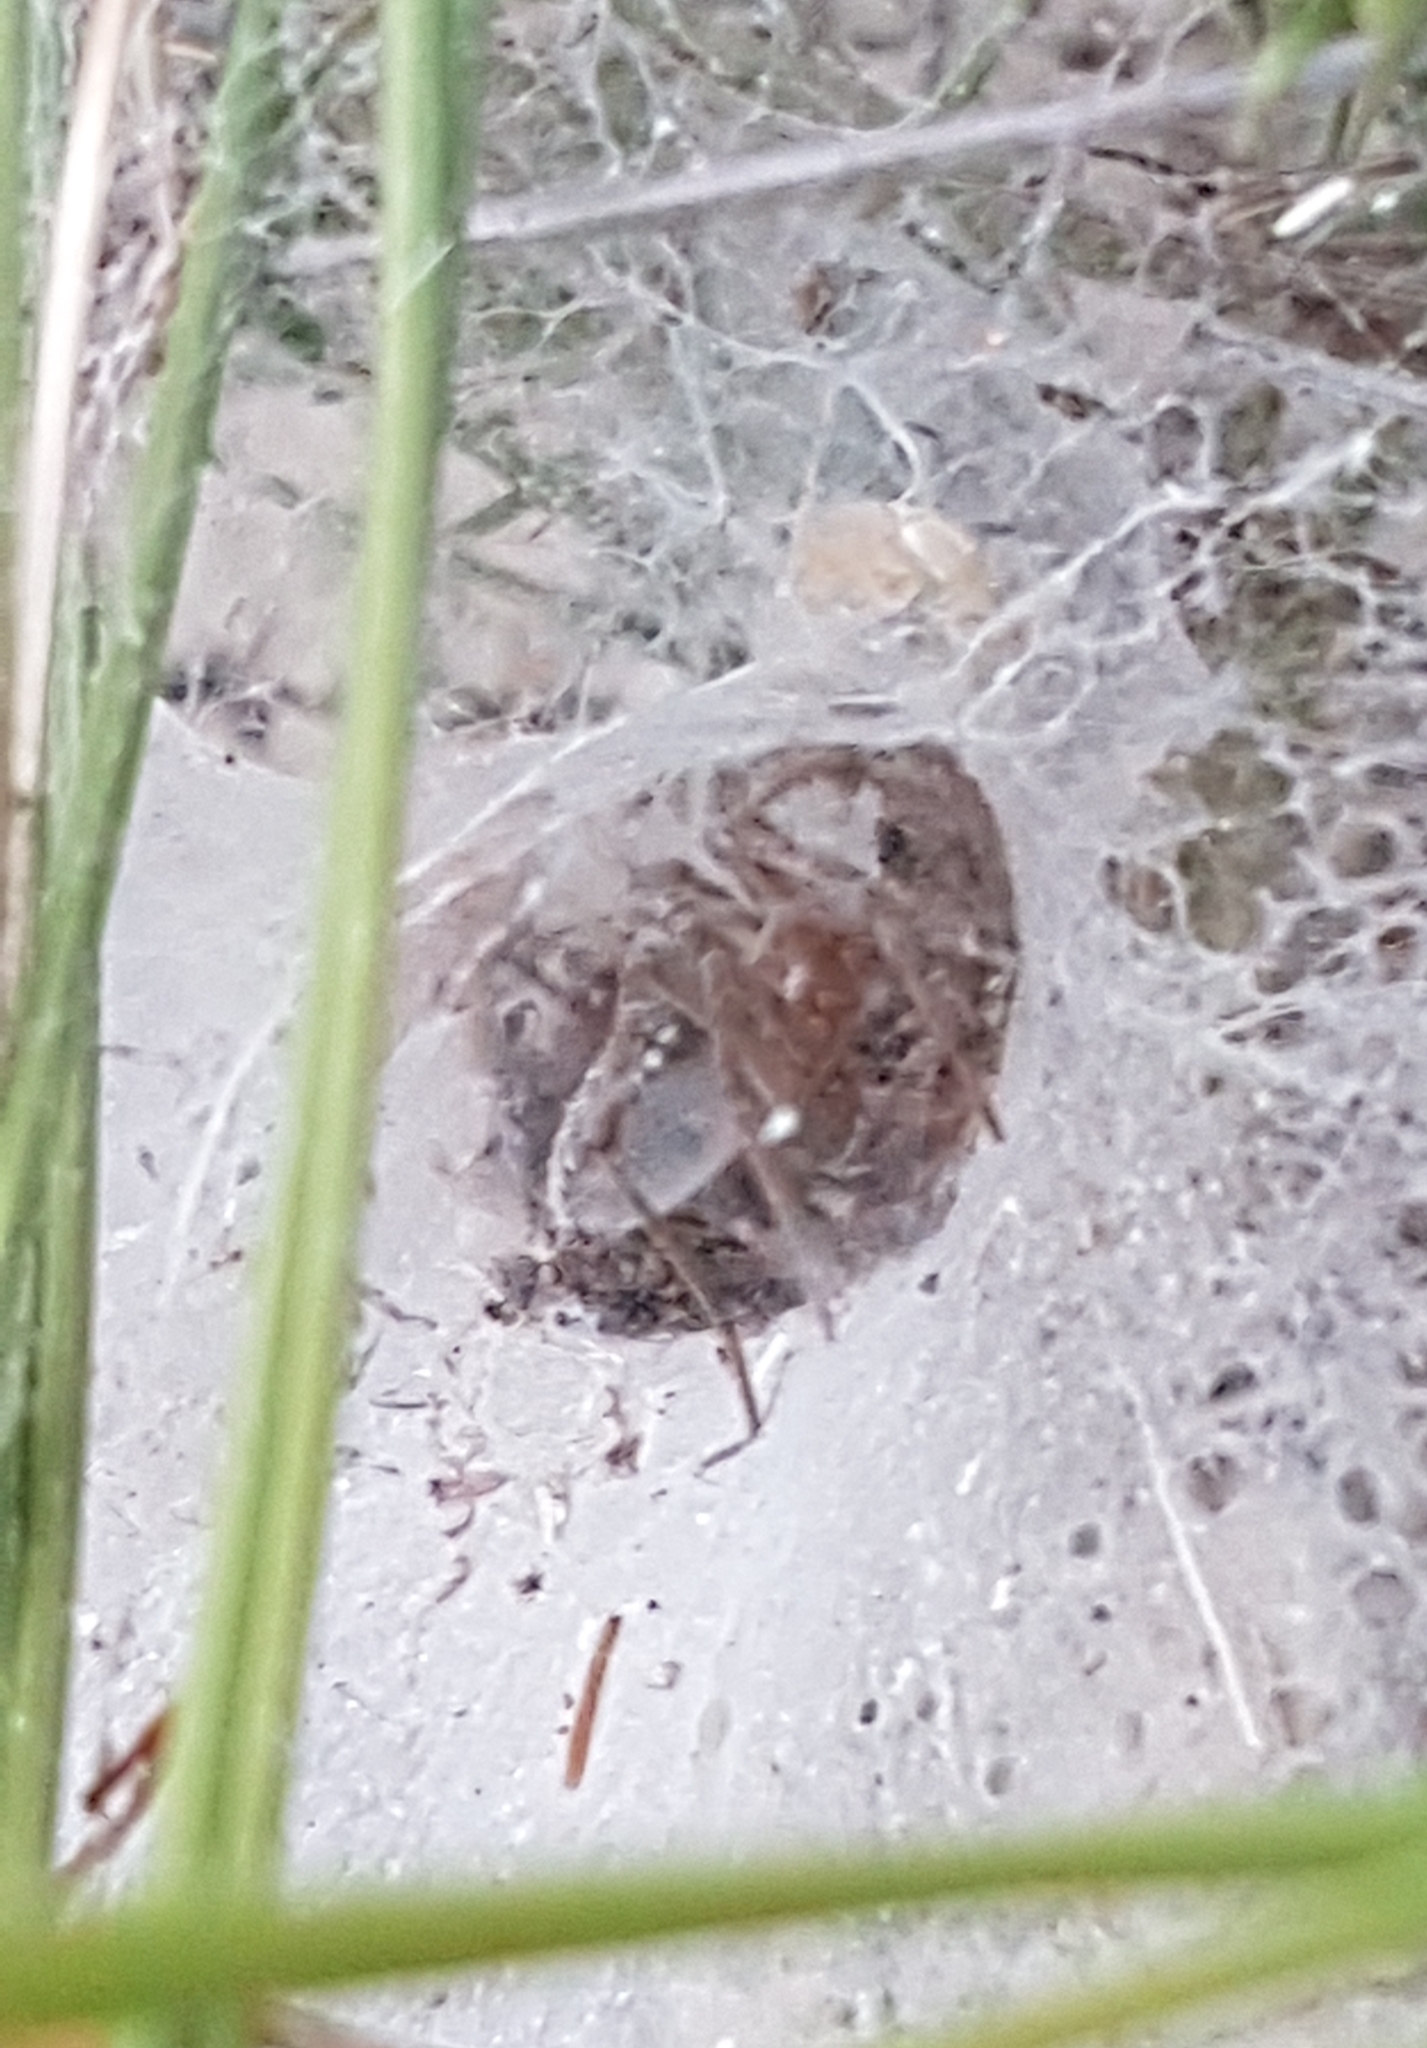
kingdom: Animalia
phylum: Arthropoda
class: Arachnida
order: Araneae
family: Agelenidae
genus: Agelena
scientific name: Agelena labyrinthica
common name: Labyrinth spider
